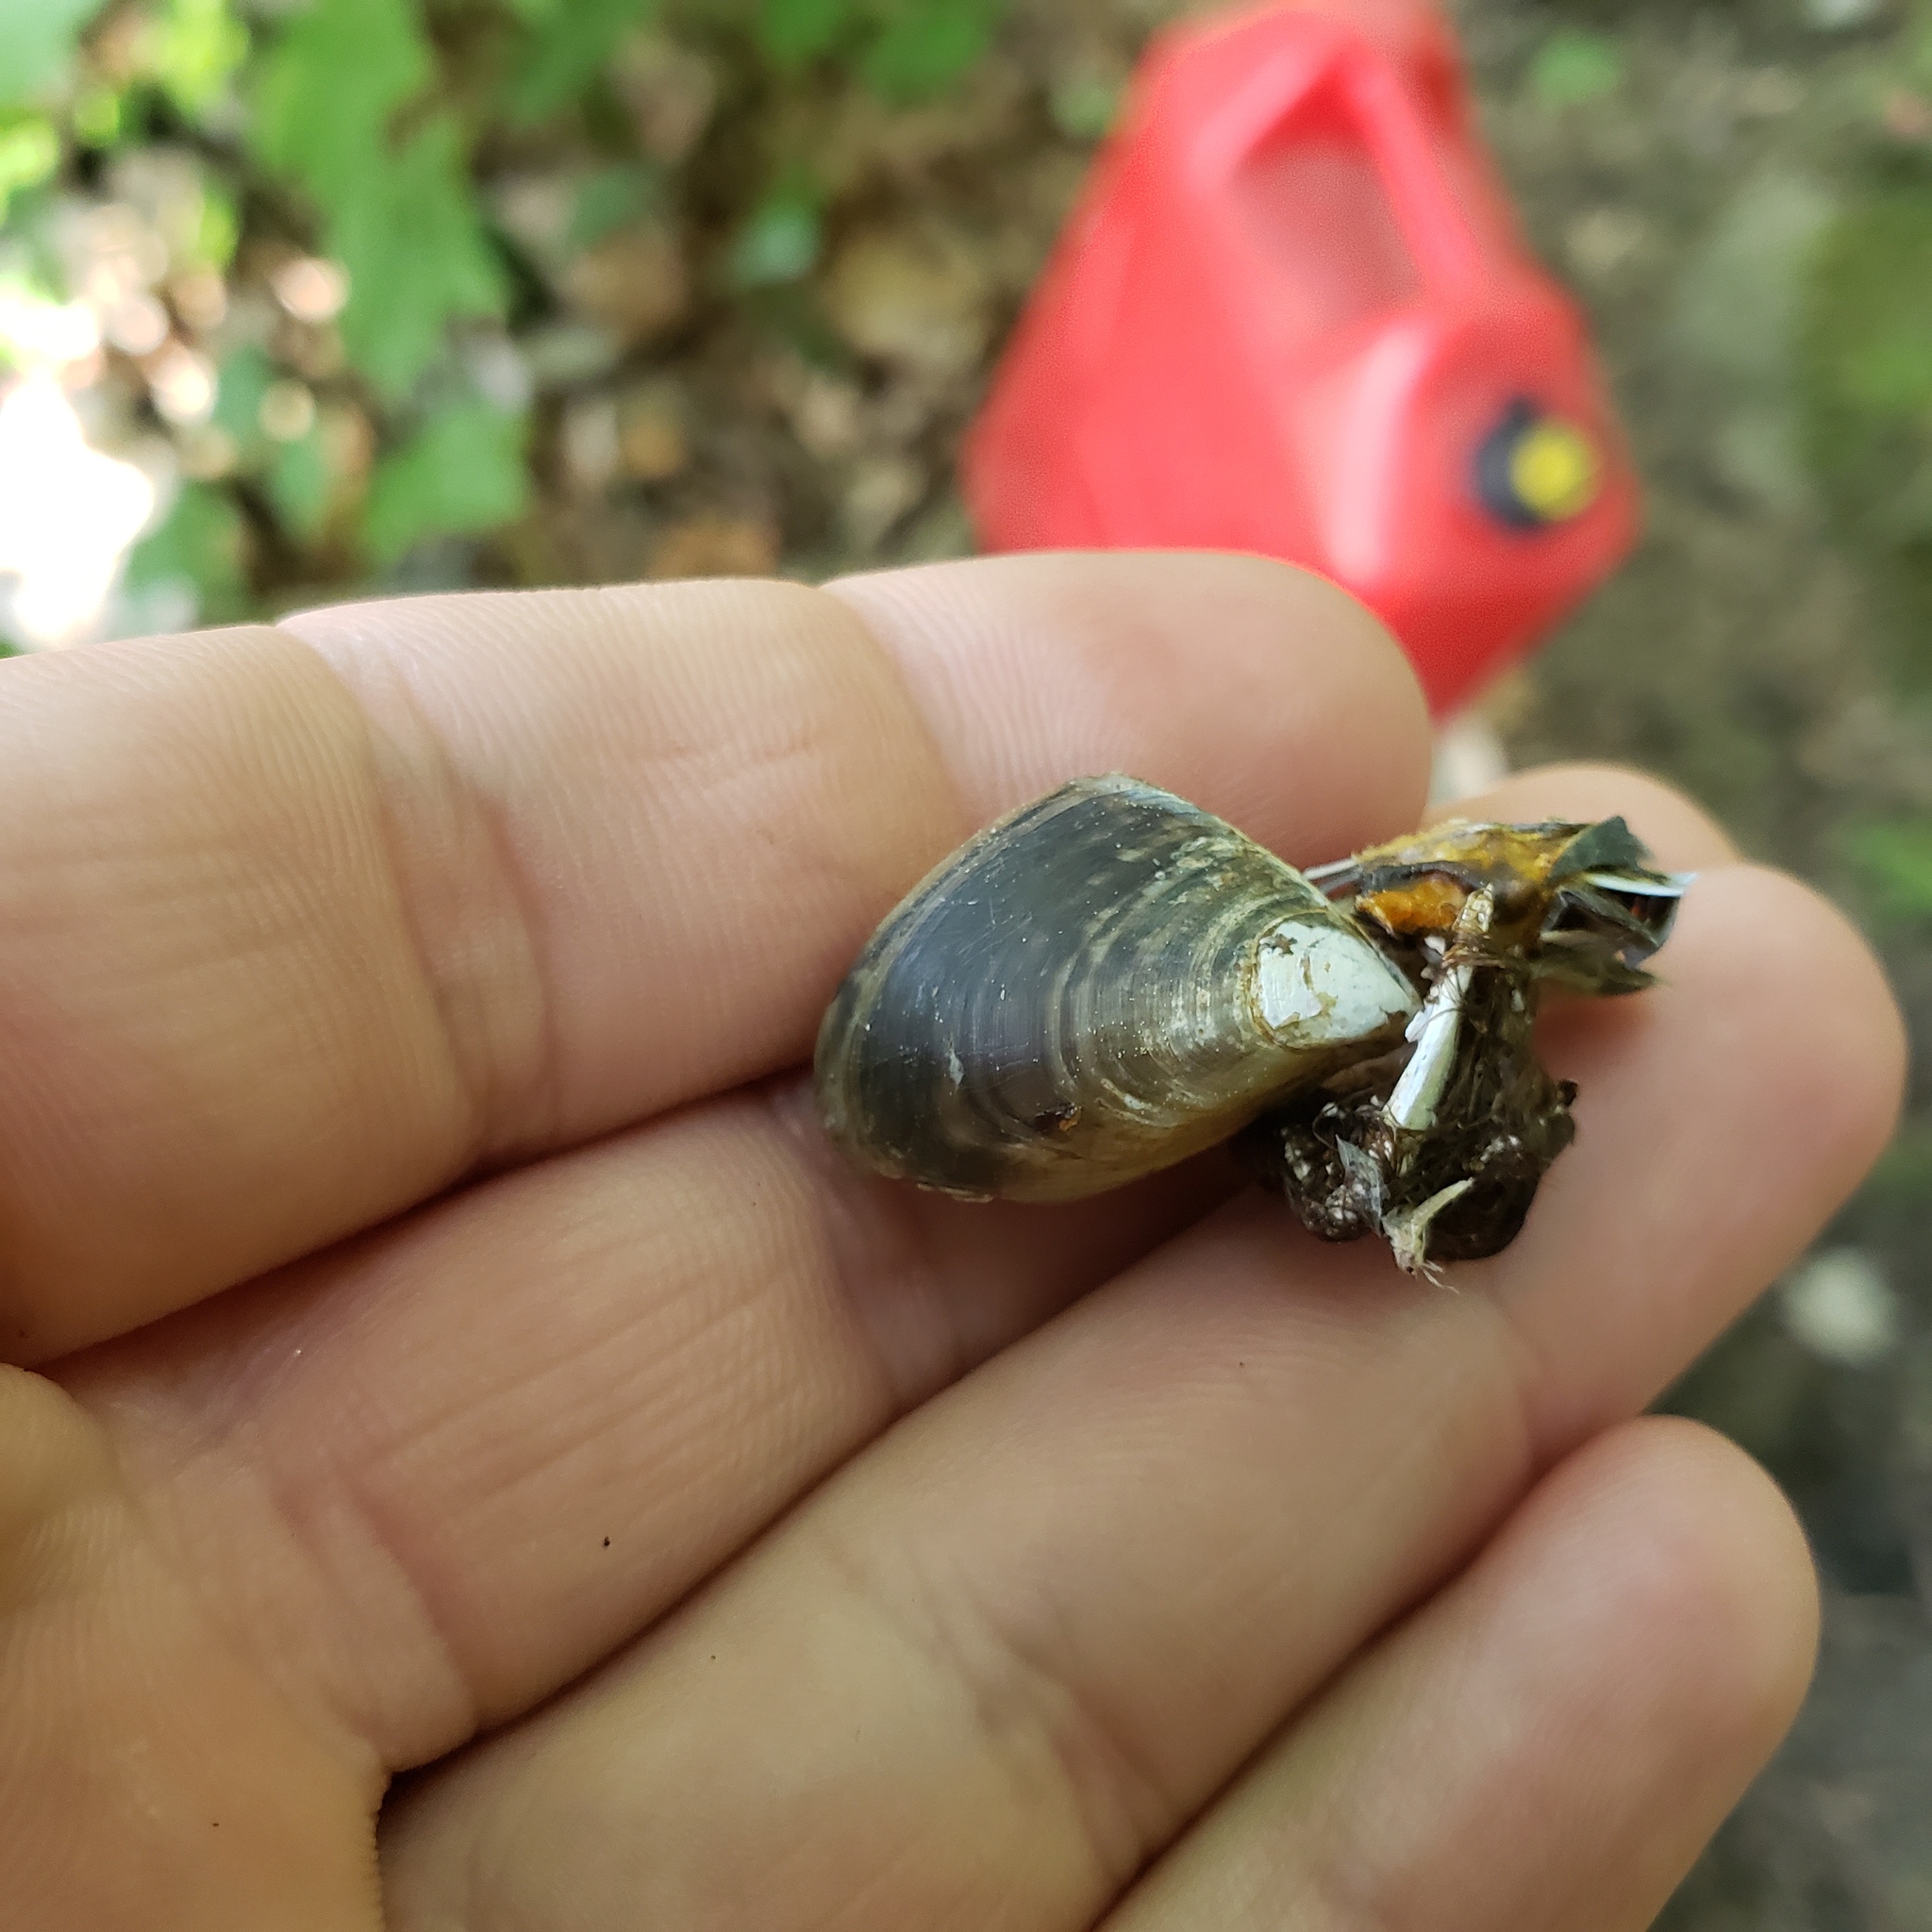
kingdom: Animalia
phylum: Mollusca
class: Bivalvia
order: Myida
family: Dreissenidae
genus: Dreissena
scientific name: Dreissena bugensis
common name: Quagga mussel
